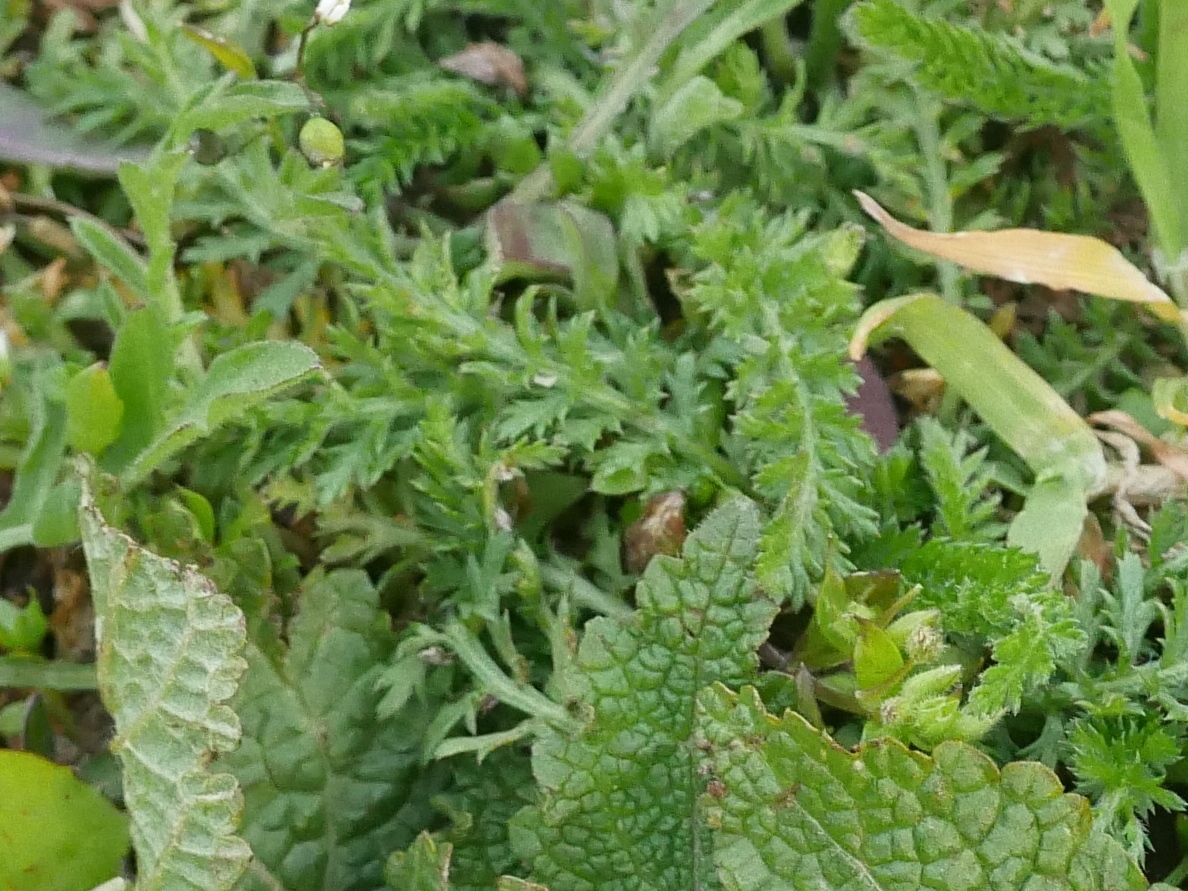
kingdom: Plantae
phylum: Tracheophyta
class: Magnoliopsida
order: Asterales
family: Asteraceae
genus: Achillea
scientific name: Achillea millefolium
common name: Yarrow
